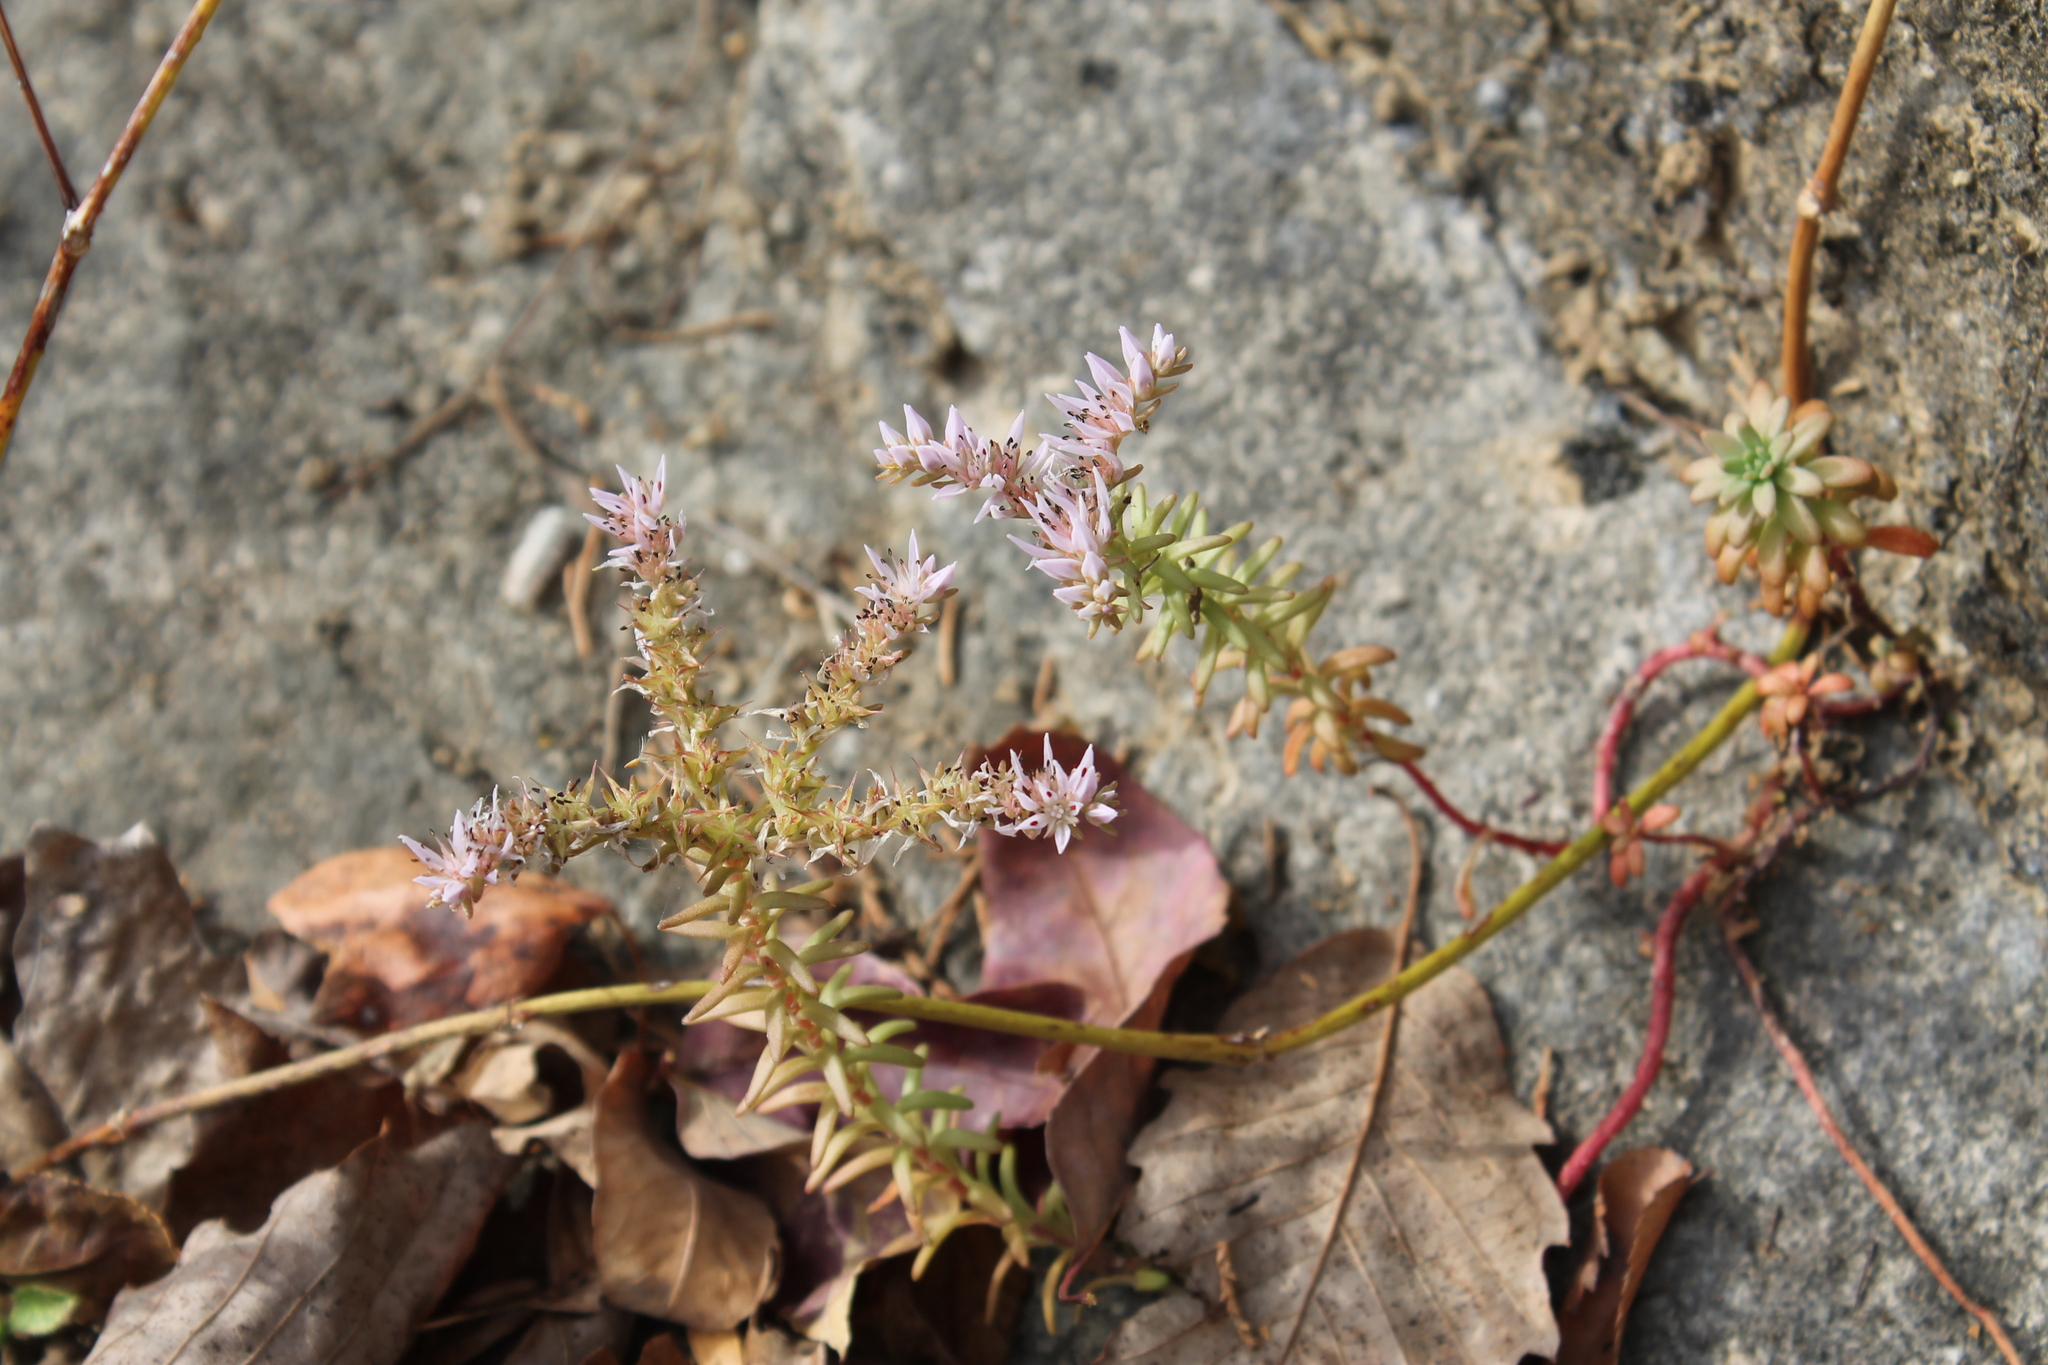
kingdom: Plantae
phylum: Tracheophyta
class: Magnoliopsida
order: Saxifragales
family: Crassulaceae
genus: Sedum
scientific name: Sedum pulchellum
